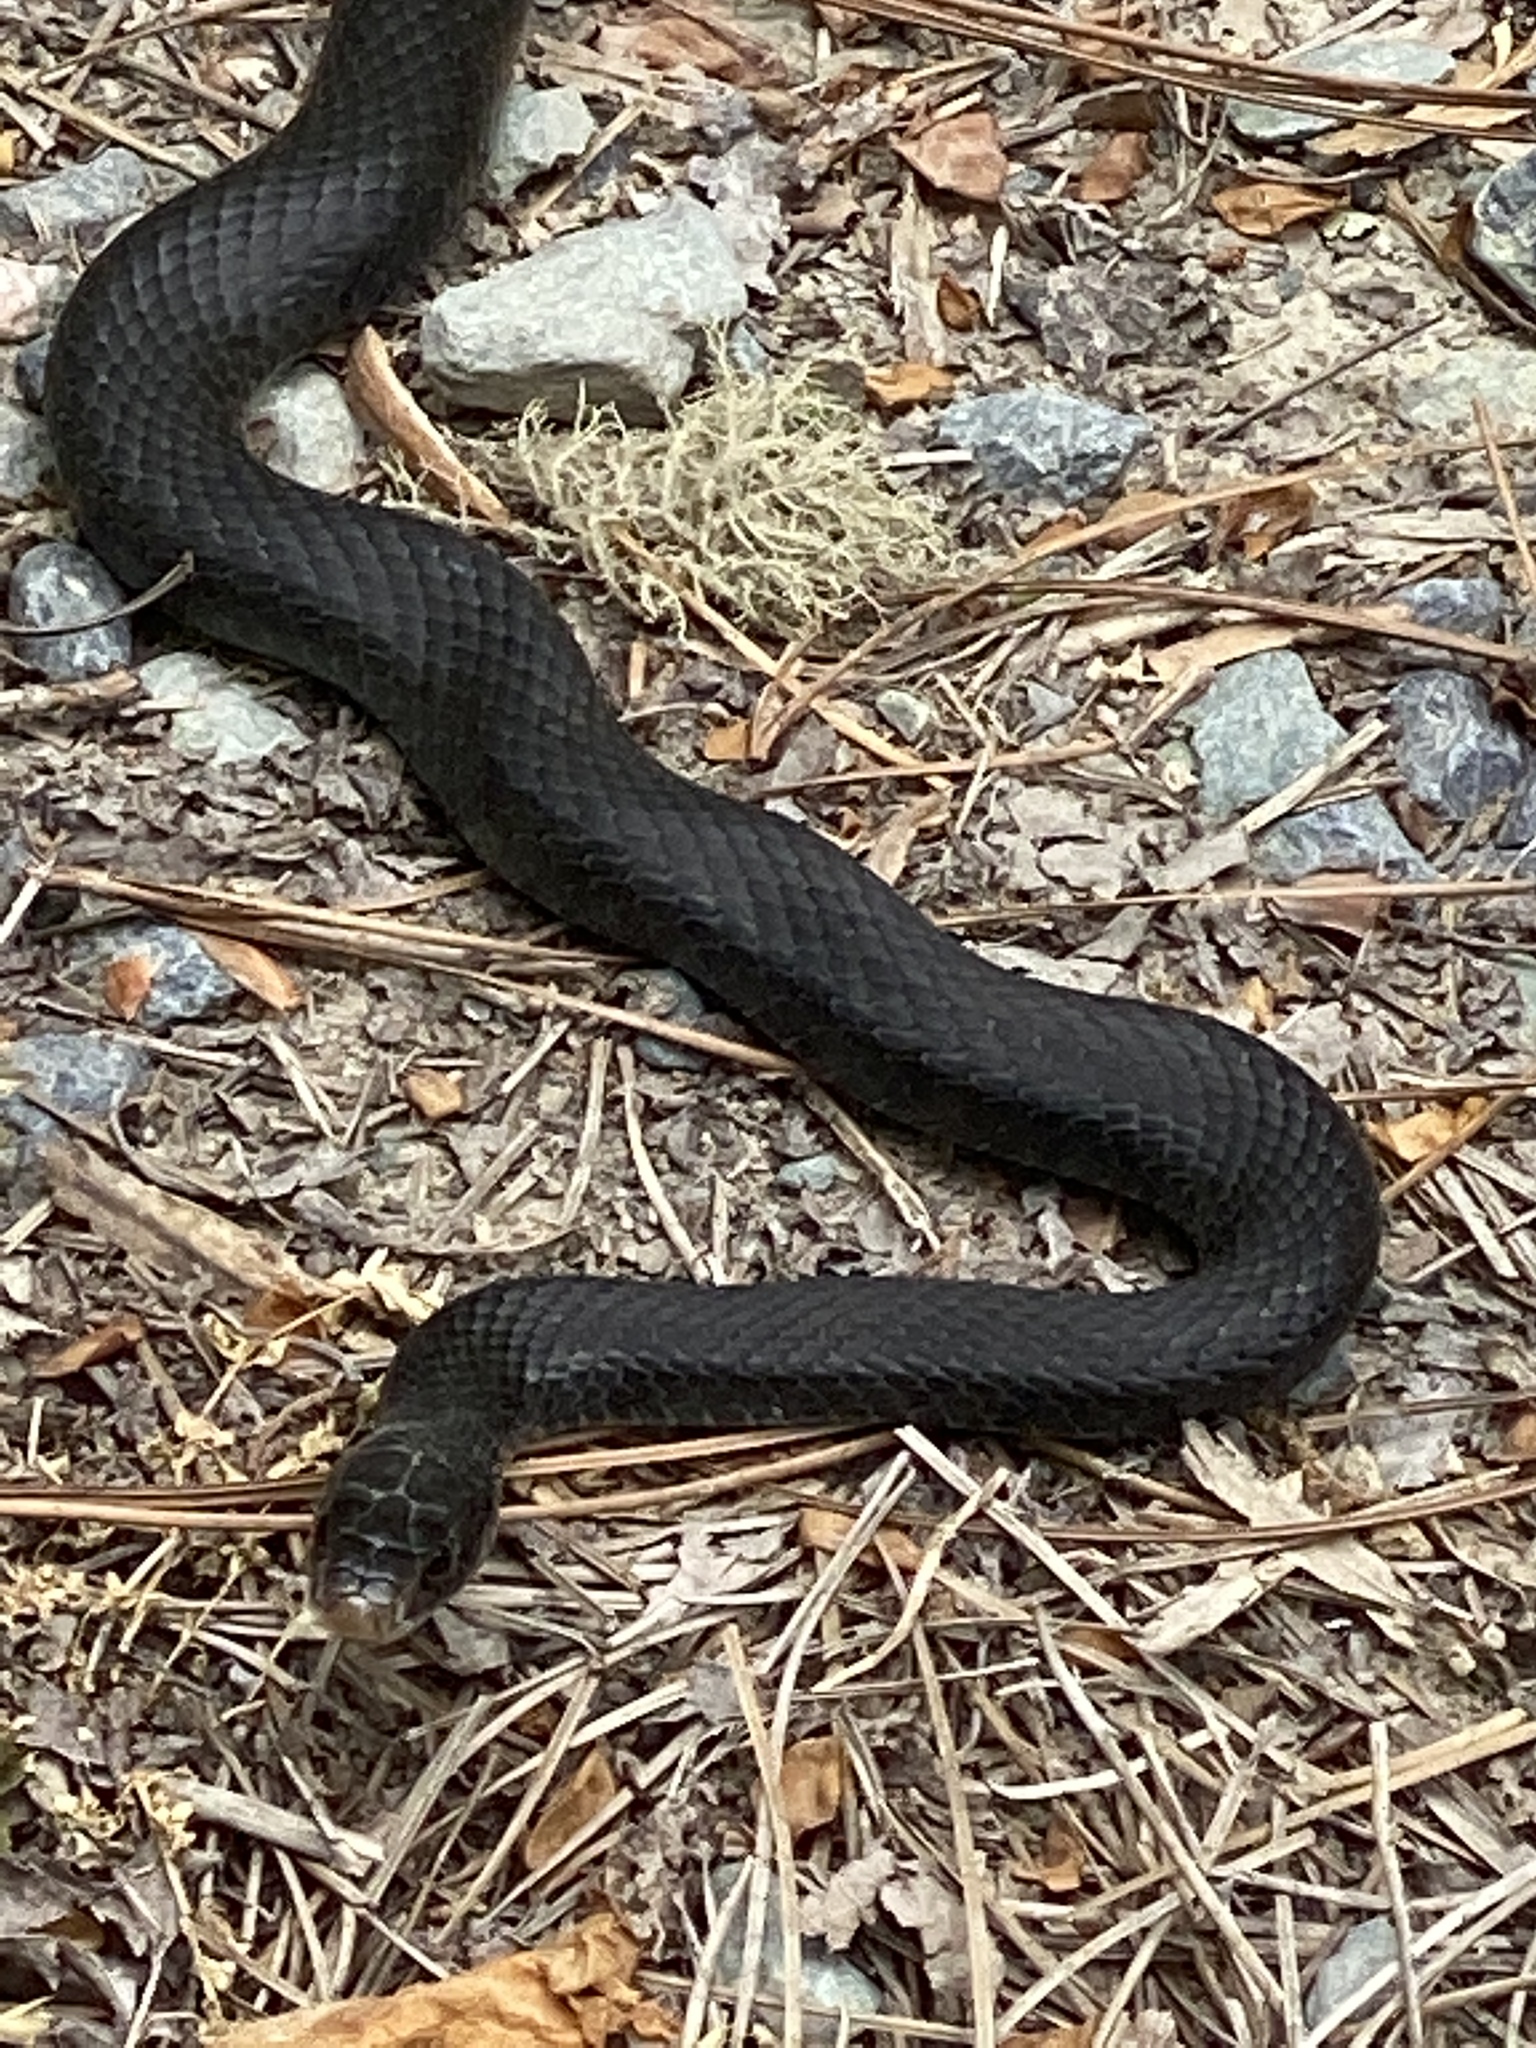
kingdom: Animalia
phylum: Chordata
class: Squamata
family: Colubridae
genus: Coluber
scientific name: Coluber constrictor
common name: Eastern racer
